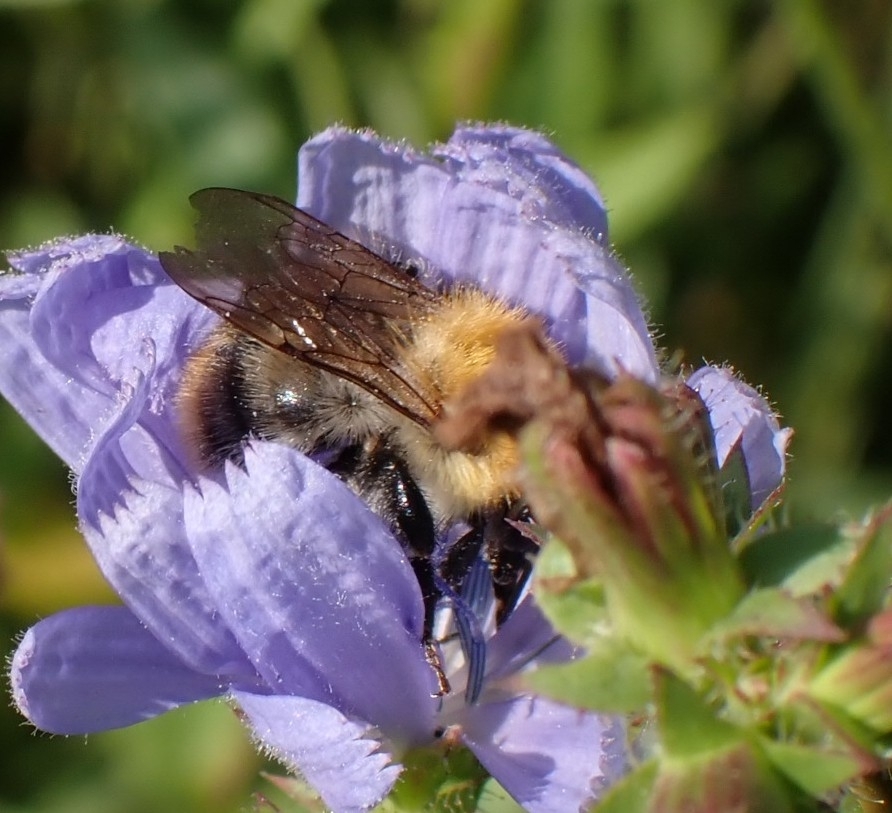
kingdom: Animalia
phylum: Arthropoda
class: Insecta
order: Hymenoptera
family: Apidae
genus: Bombus
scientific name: Bombus pascuorum
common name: Common carder bee
